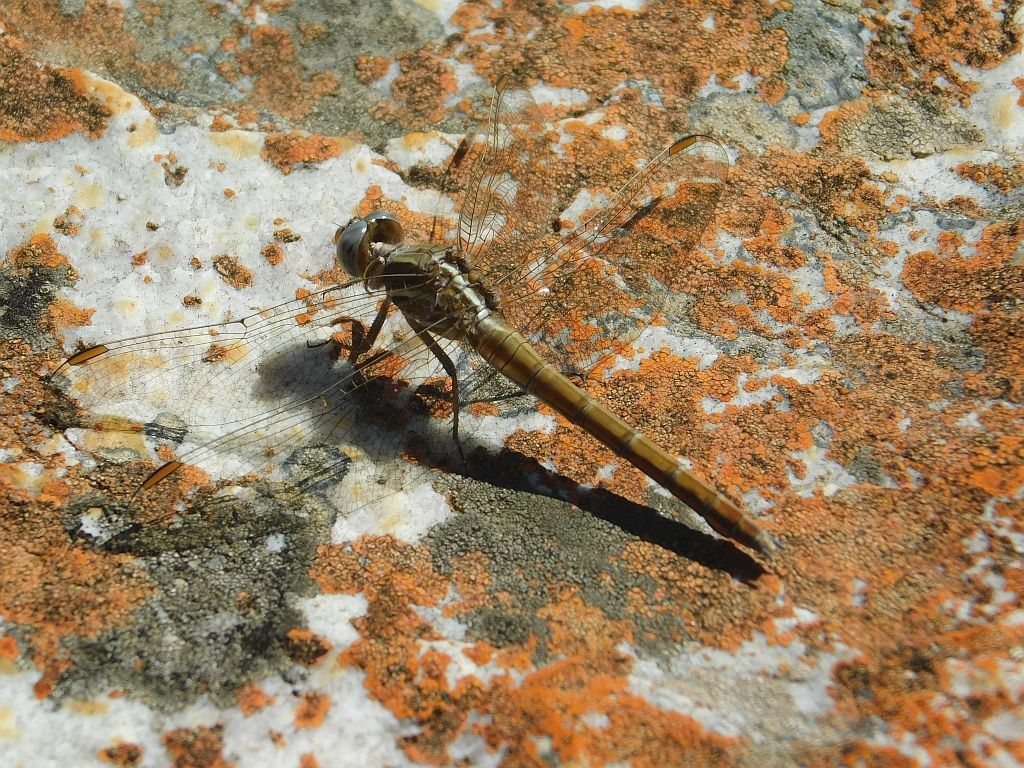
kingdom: Animalia
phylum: Arthropoda
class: Insecta
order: Odonata
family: Libellulidae
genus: Orthetrum
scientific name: Orthetrum caffrum
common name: Two-striped skimmer
